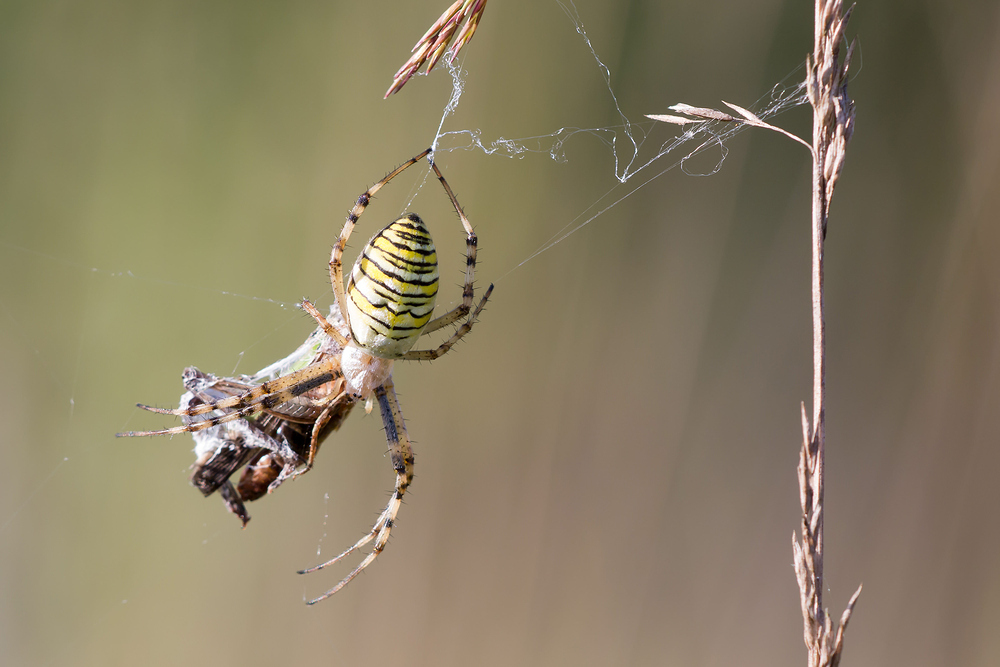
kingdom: Animalia
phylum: Arthropoda
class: Arachnida
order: Araneae
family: Araneidae
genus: Argiope
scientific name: Argiope bruennichi
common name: Wasp spider
